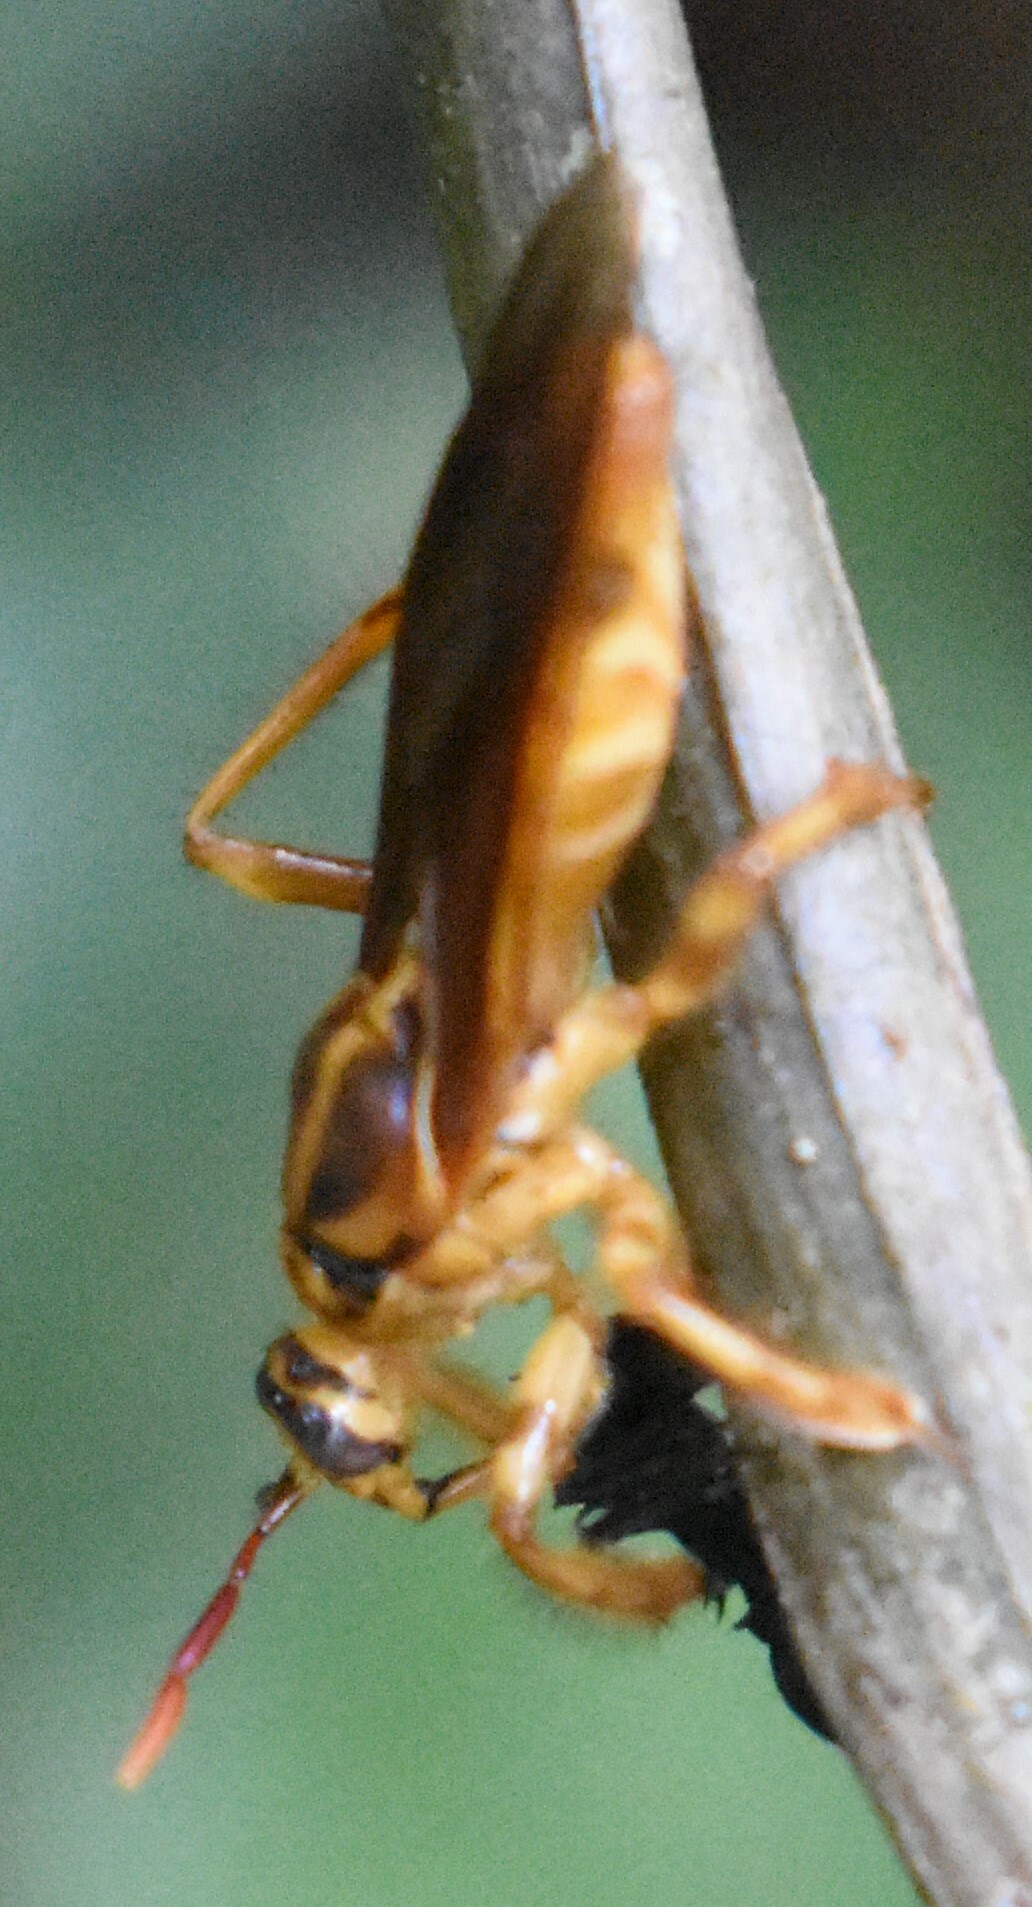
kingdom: Animalia
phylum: Arthropoda
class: Insecta
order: Hemiptera
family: Reduviidae
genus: Sphodrolestes
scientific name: Sphodrolestes vittatticollis
